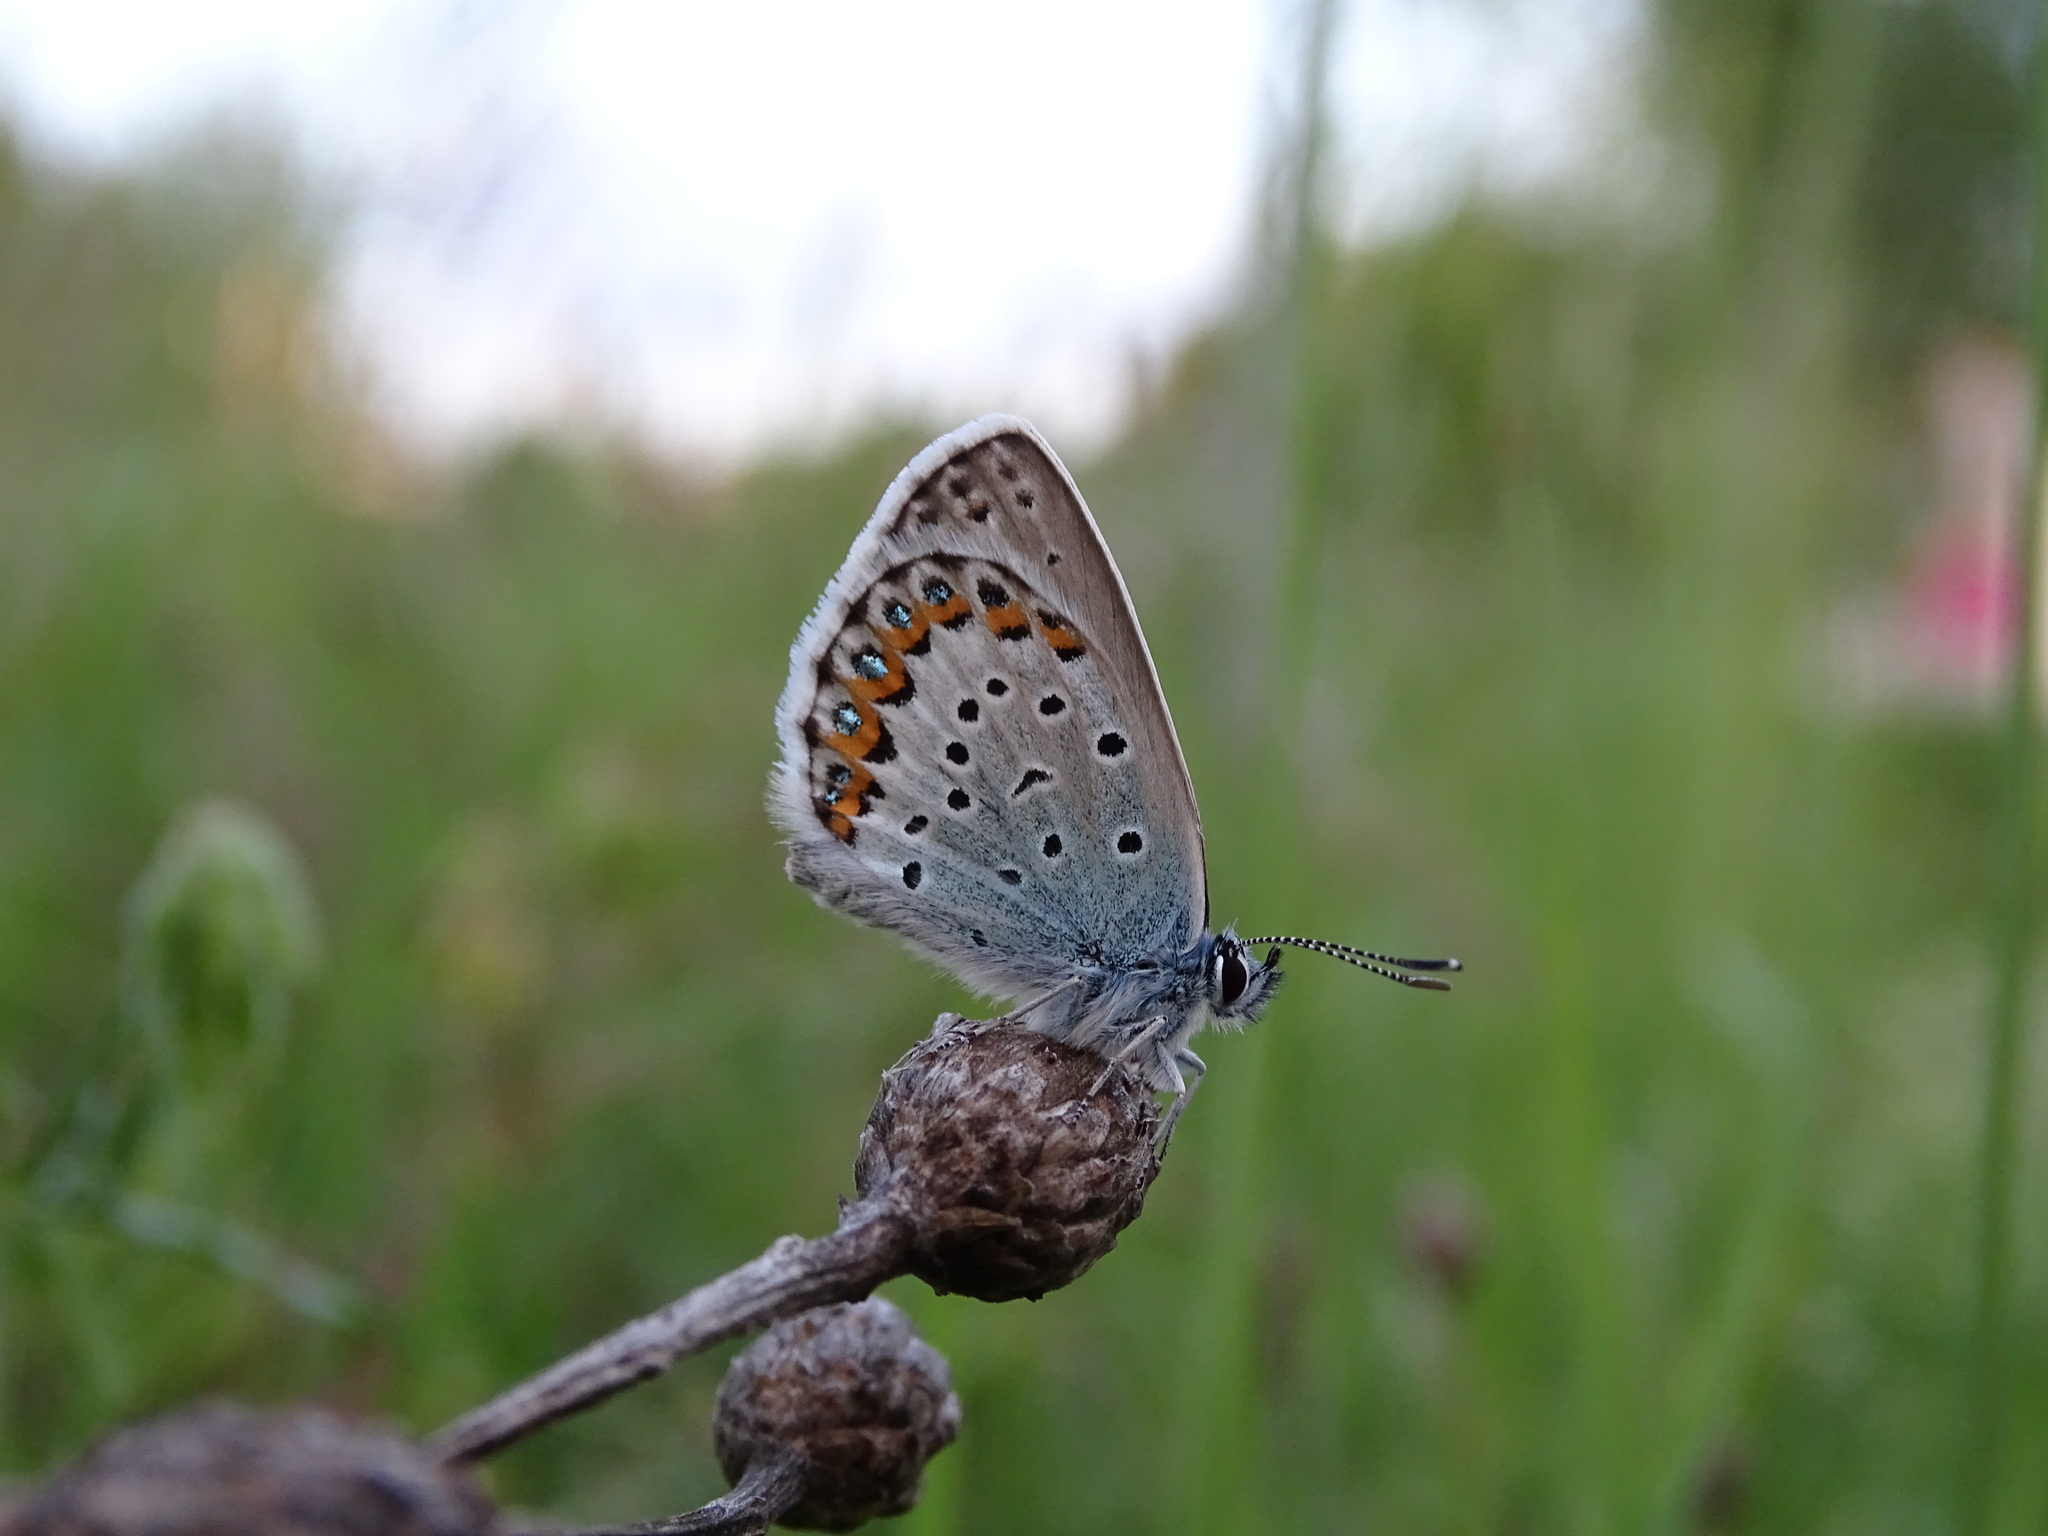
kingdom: Animalia
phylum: Arthropoda
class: Insecta
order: Lepidoptera
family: Lycaenidae
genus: Lycaeides
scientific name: Lycaeides idas
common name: Northern blue
